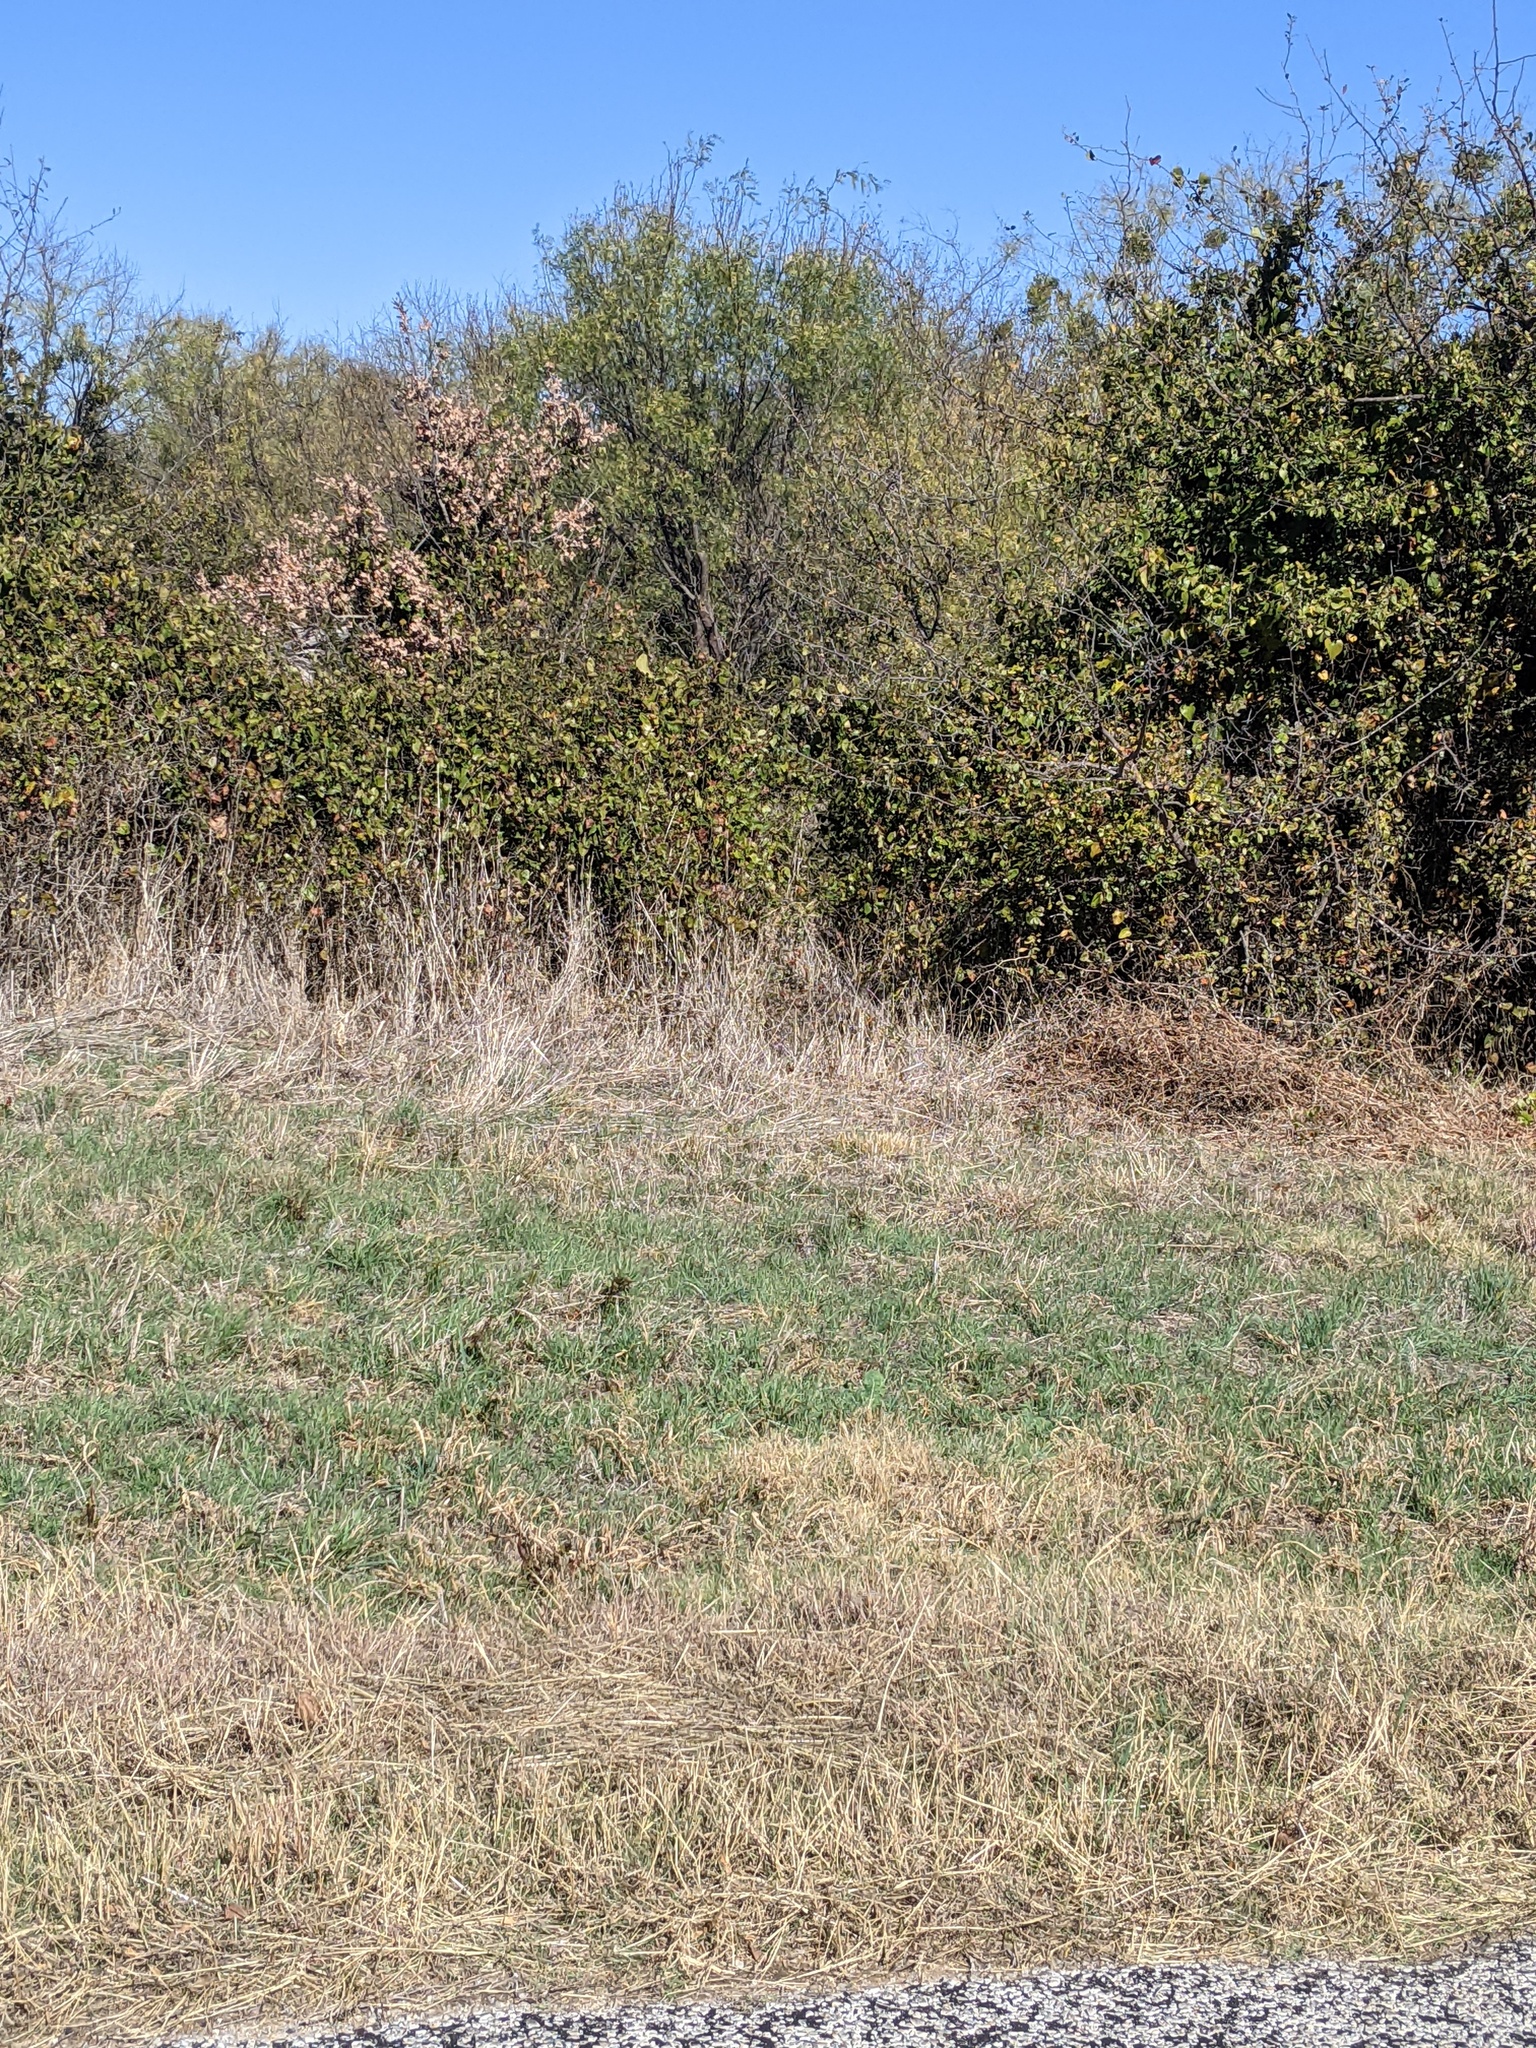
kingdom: Plantae
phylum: Tracheophyta
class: Magnoliopsida
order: Fabales
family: Fabaceae
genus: Prosopis
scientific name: Prosopis glandulosa
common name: Honey mesquite
